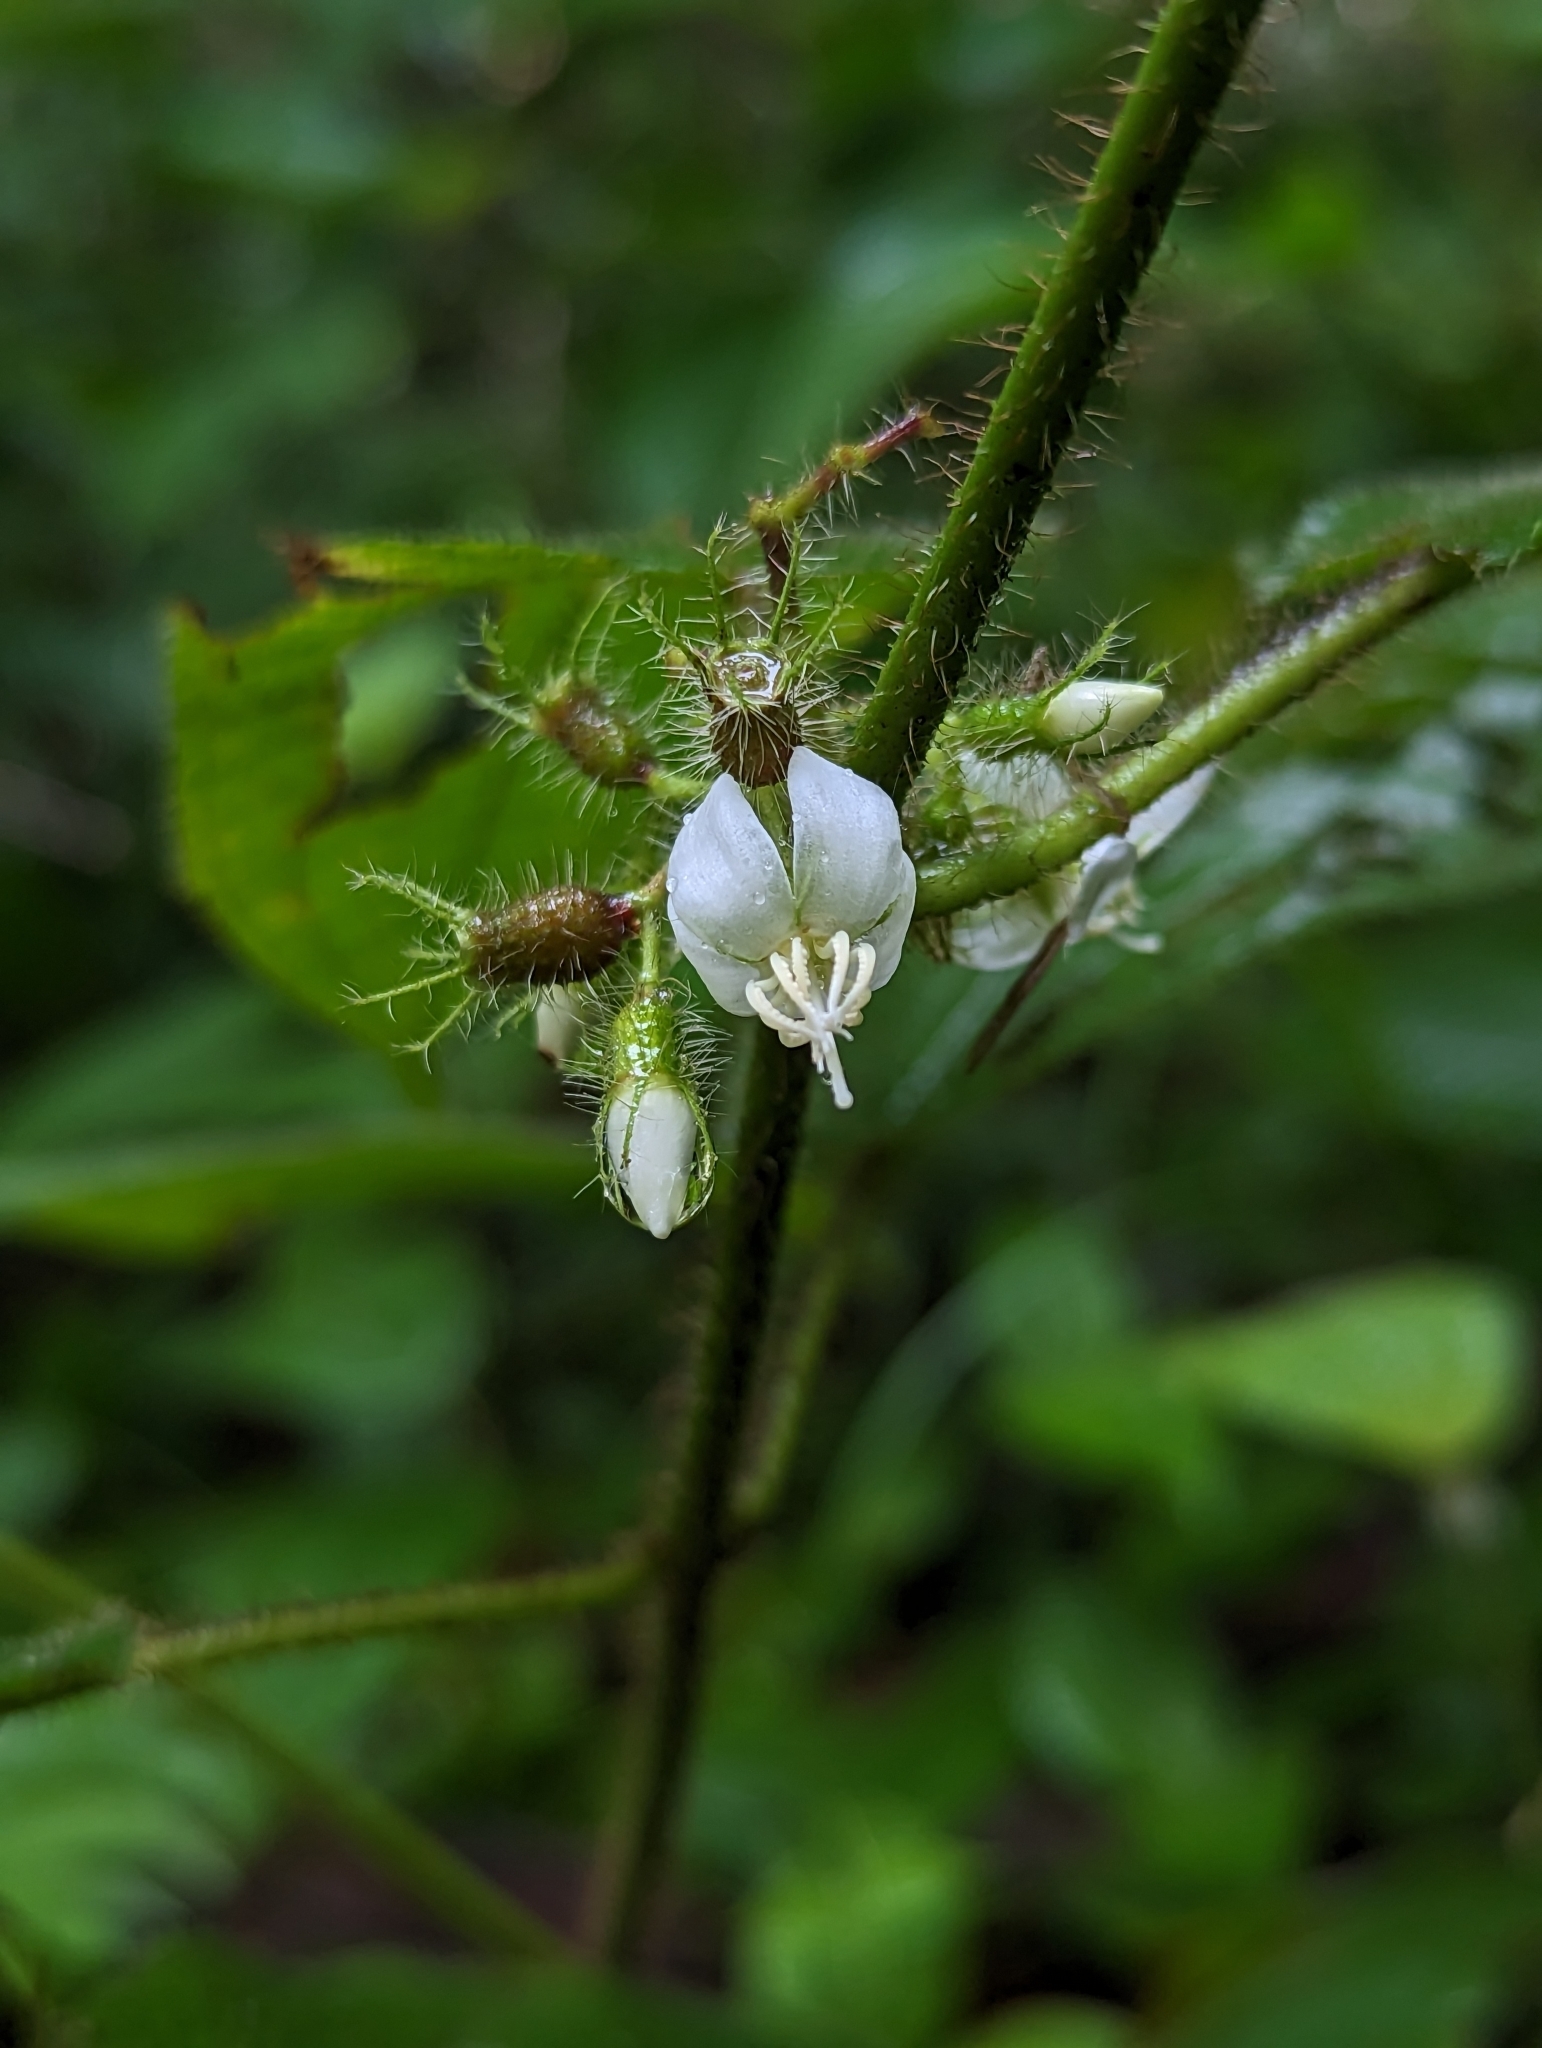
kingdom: Plantae
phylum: Tracheophyta
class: Magnoliopsida
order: Myrtales
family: Melastomataceae
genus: Miconia
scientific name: Miconia crenata
